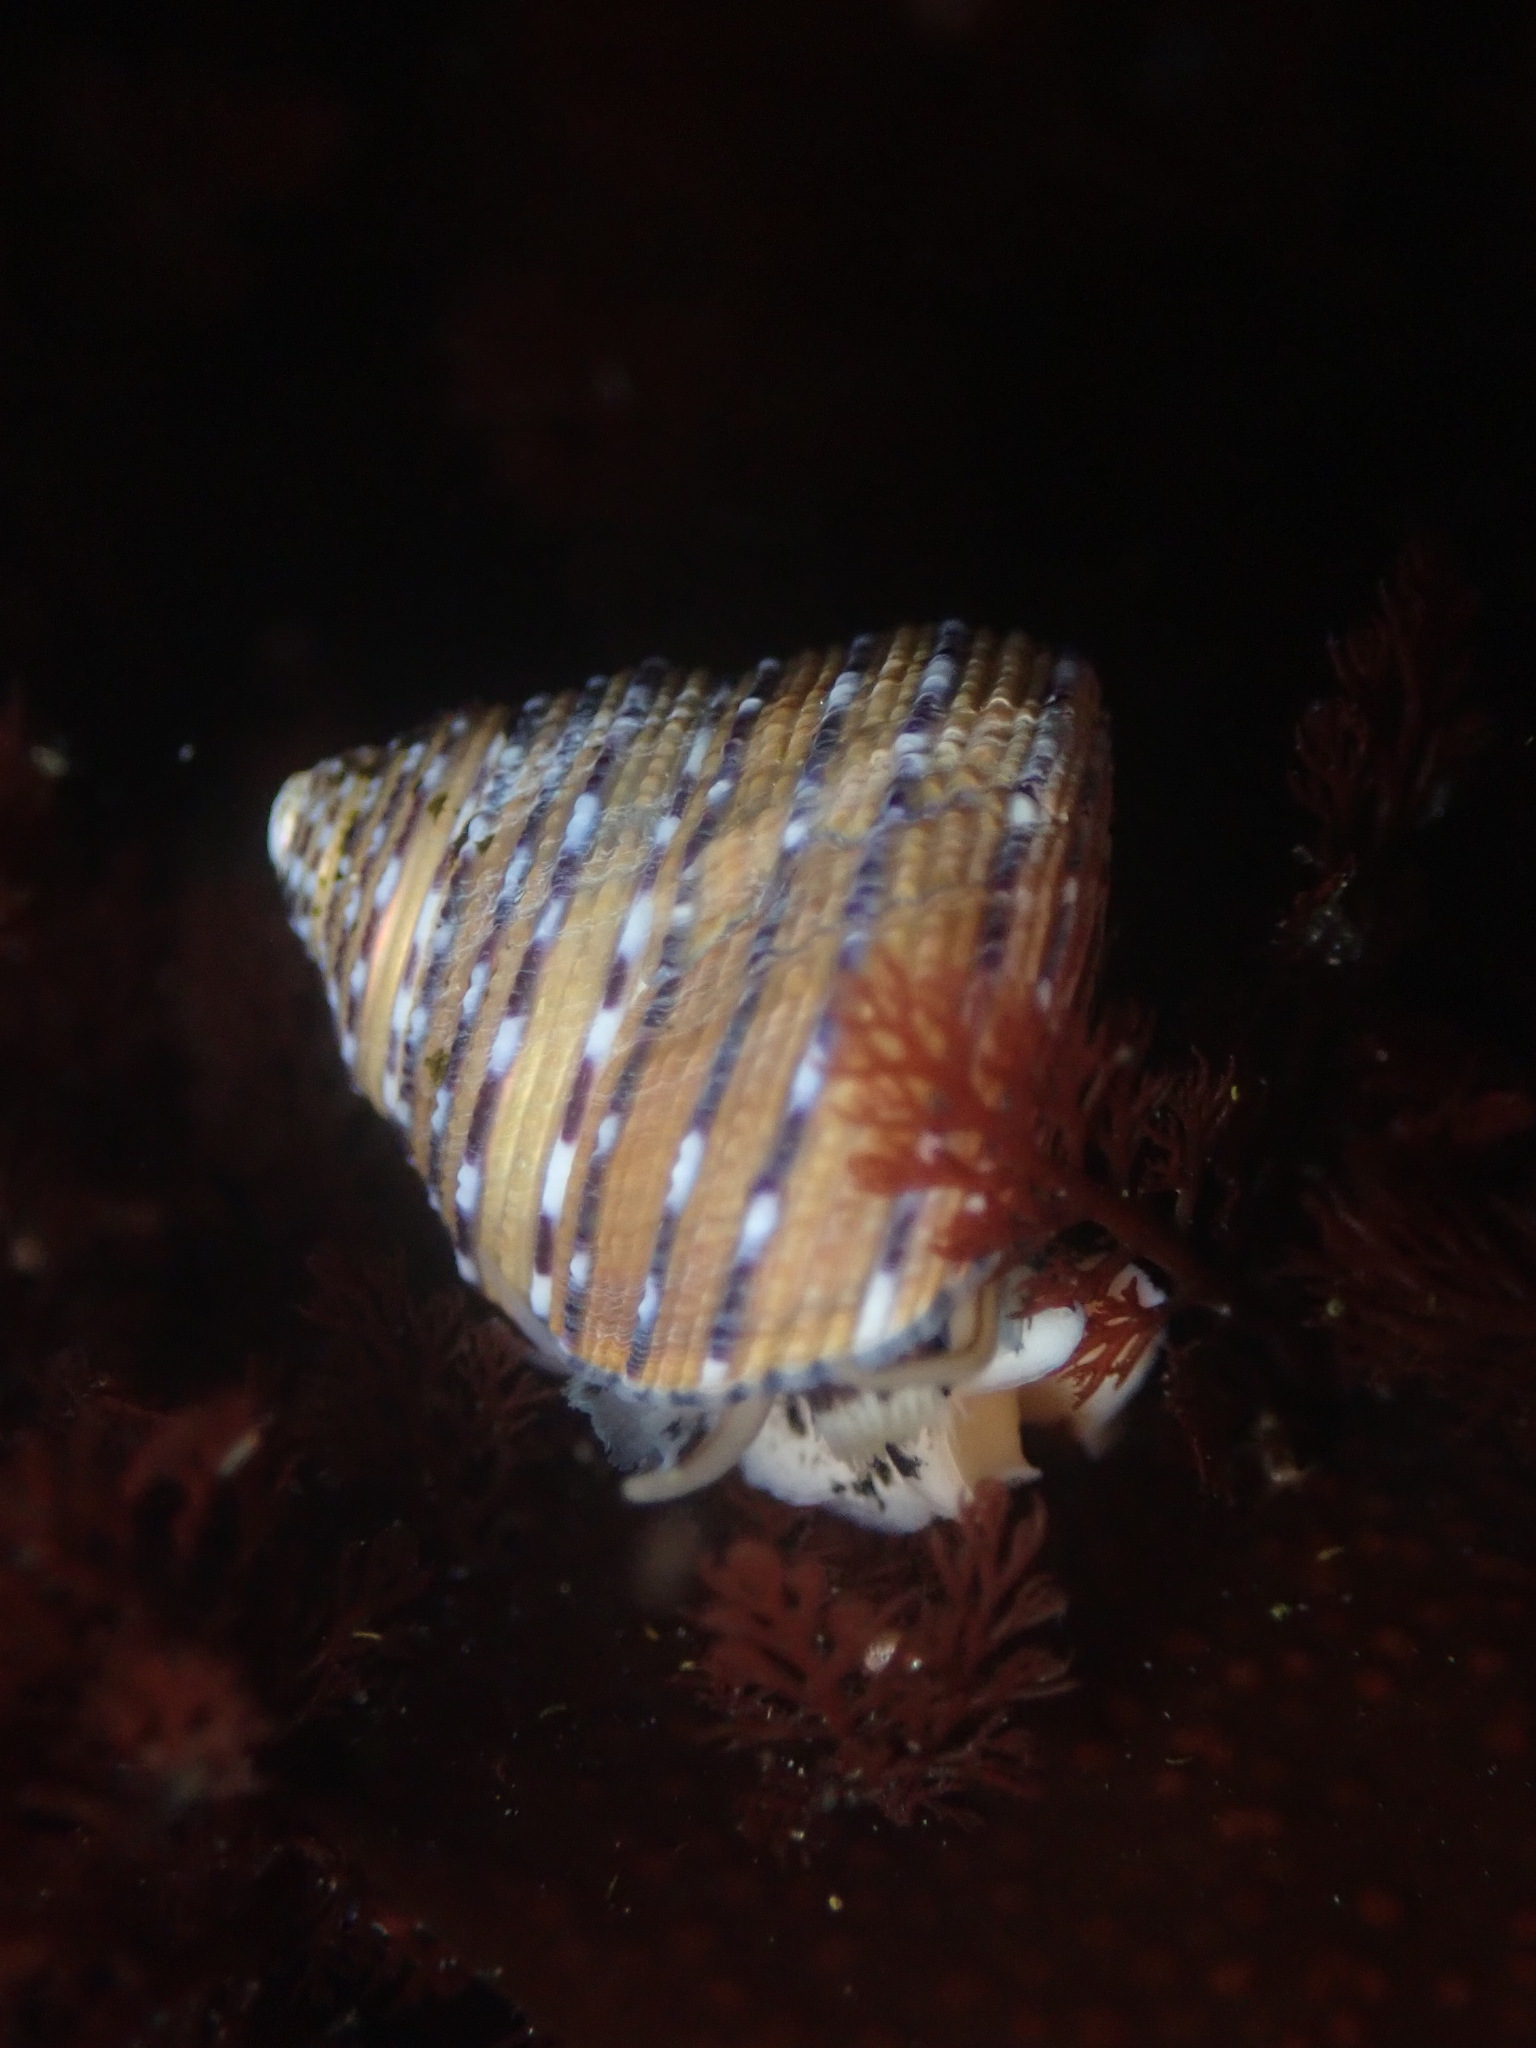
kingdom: Animalia
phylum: Mollusca
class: Gastropoda
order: Trochida
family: Calliostomatidae
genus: Calliostoma
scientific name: Calliostoma tricolor
